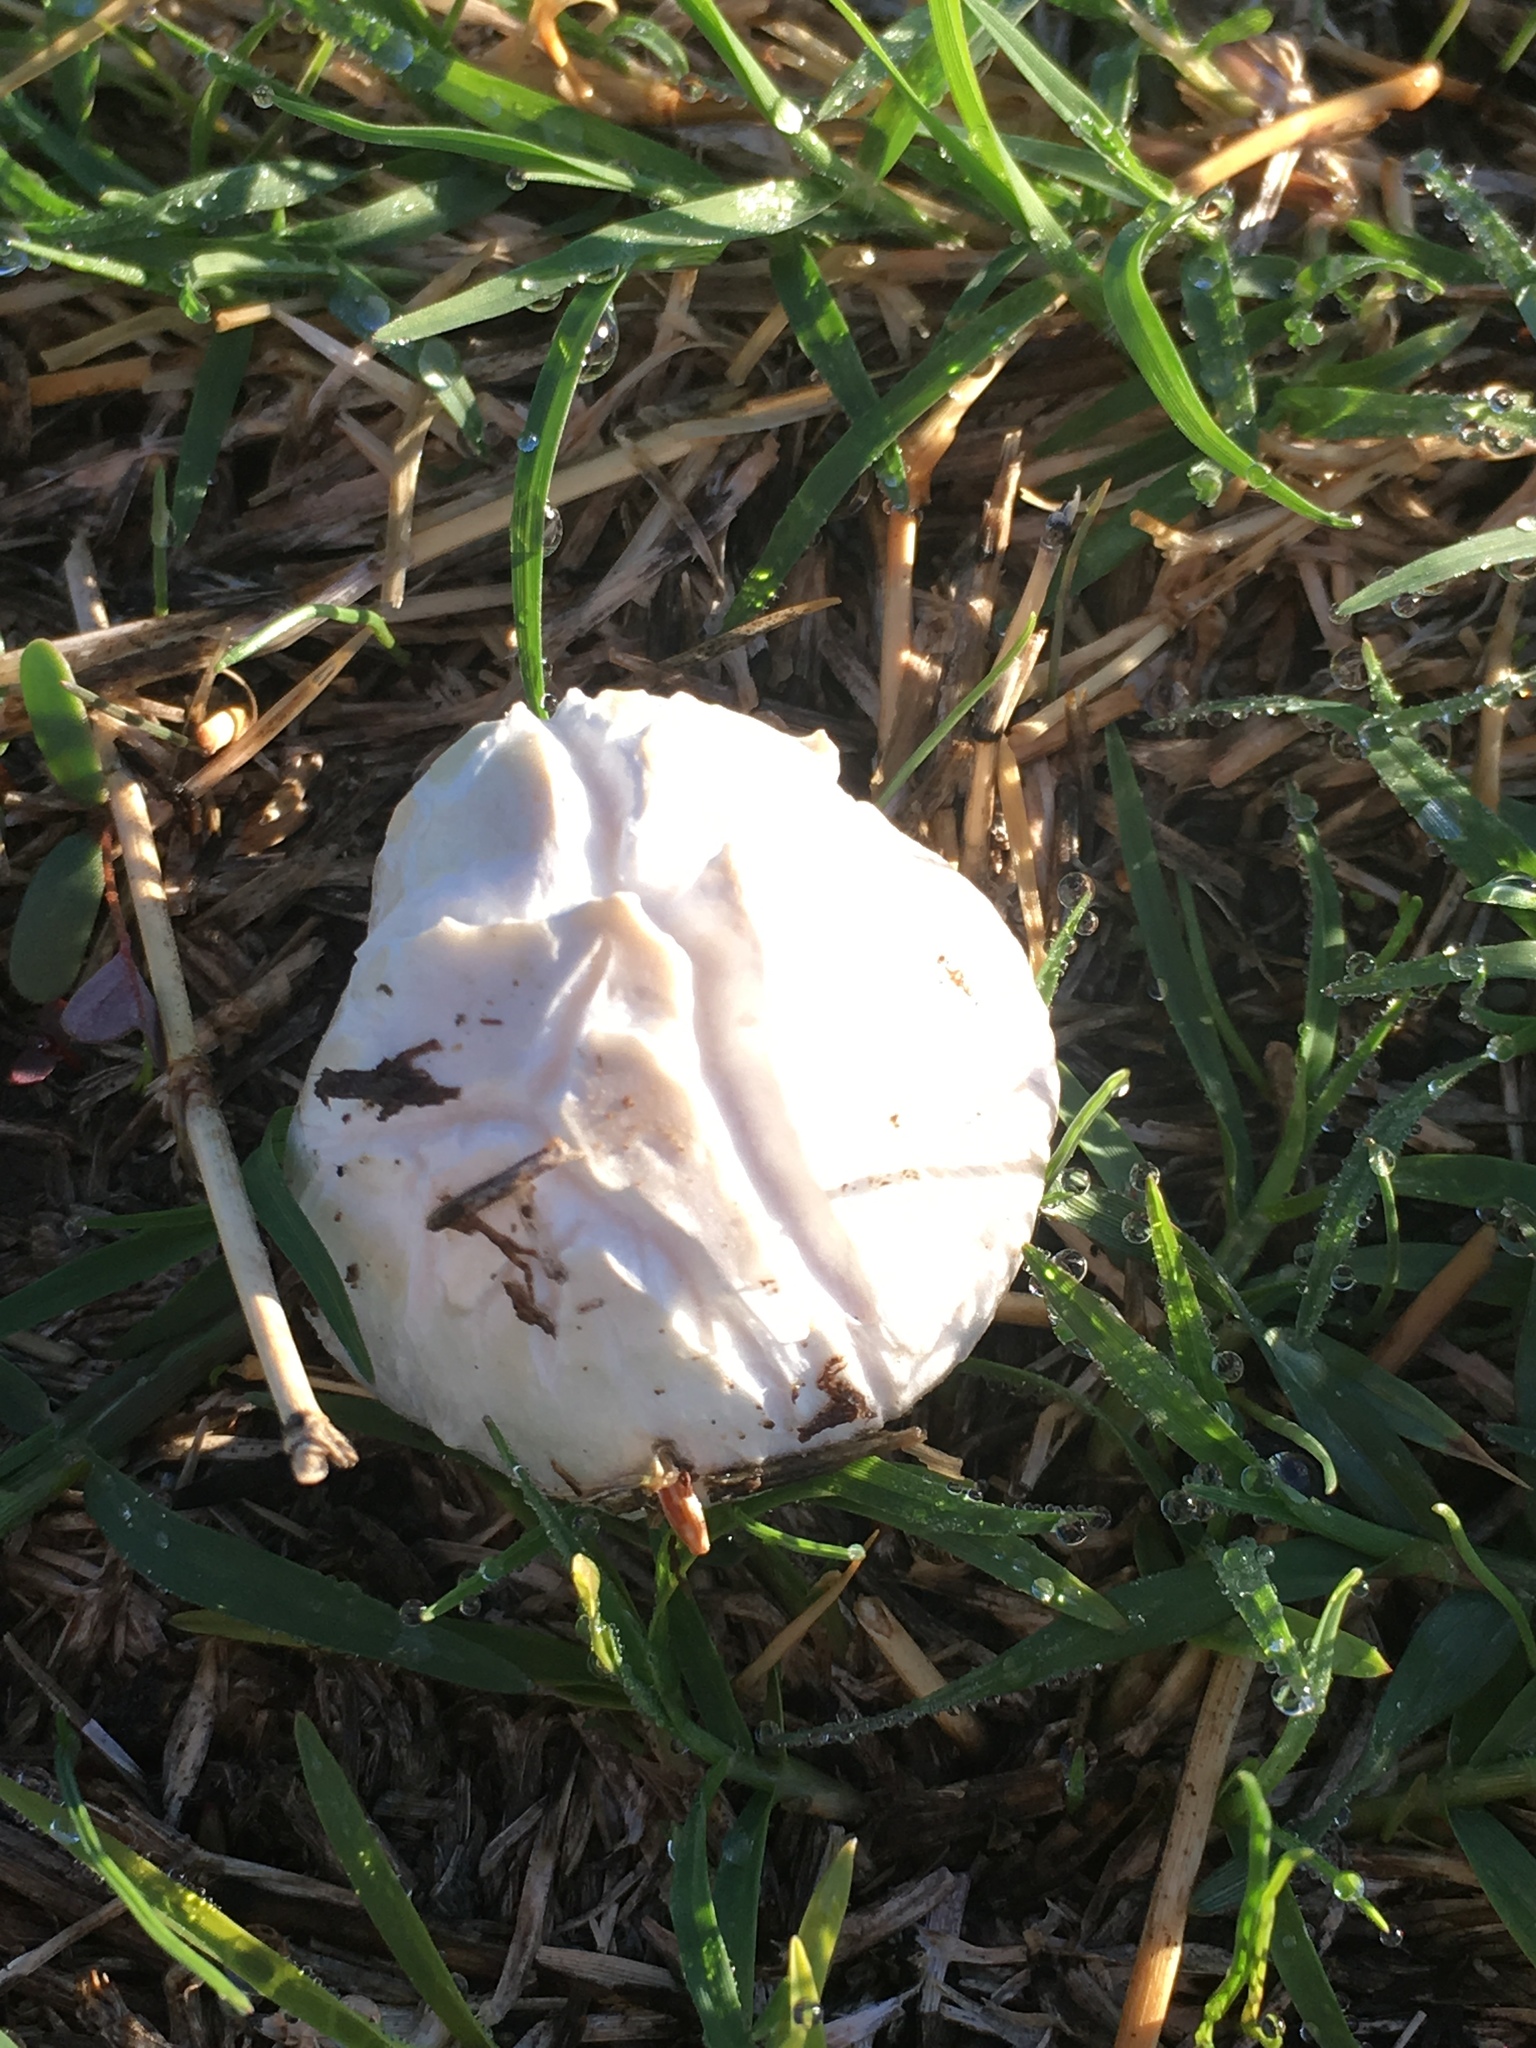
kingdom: Fungi
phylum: Basidiomycota
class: Agaricomycetes
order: Agaricales
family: Agaricaceae
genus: Agaricus
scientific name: Agaricus campestris
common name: Field mushroom
